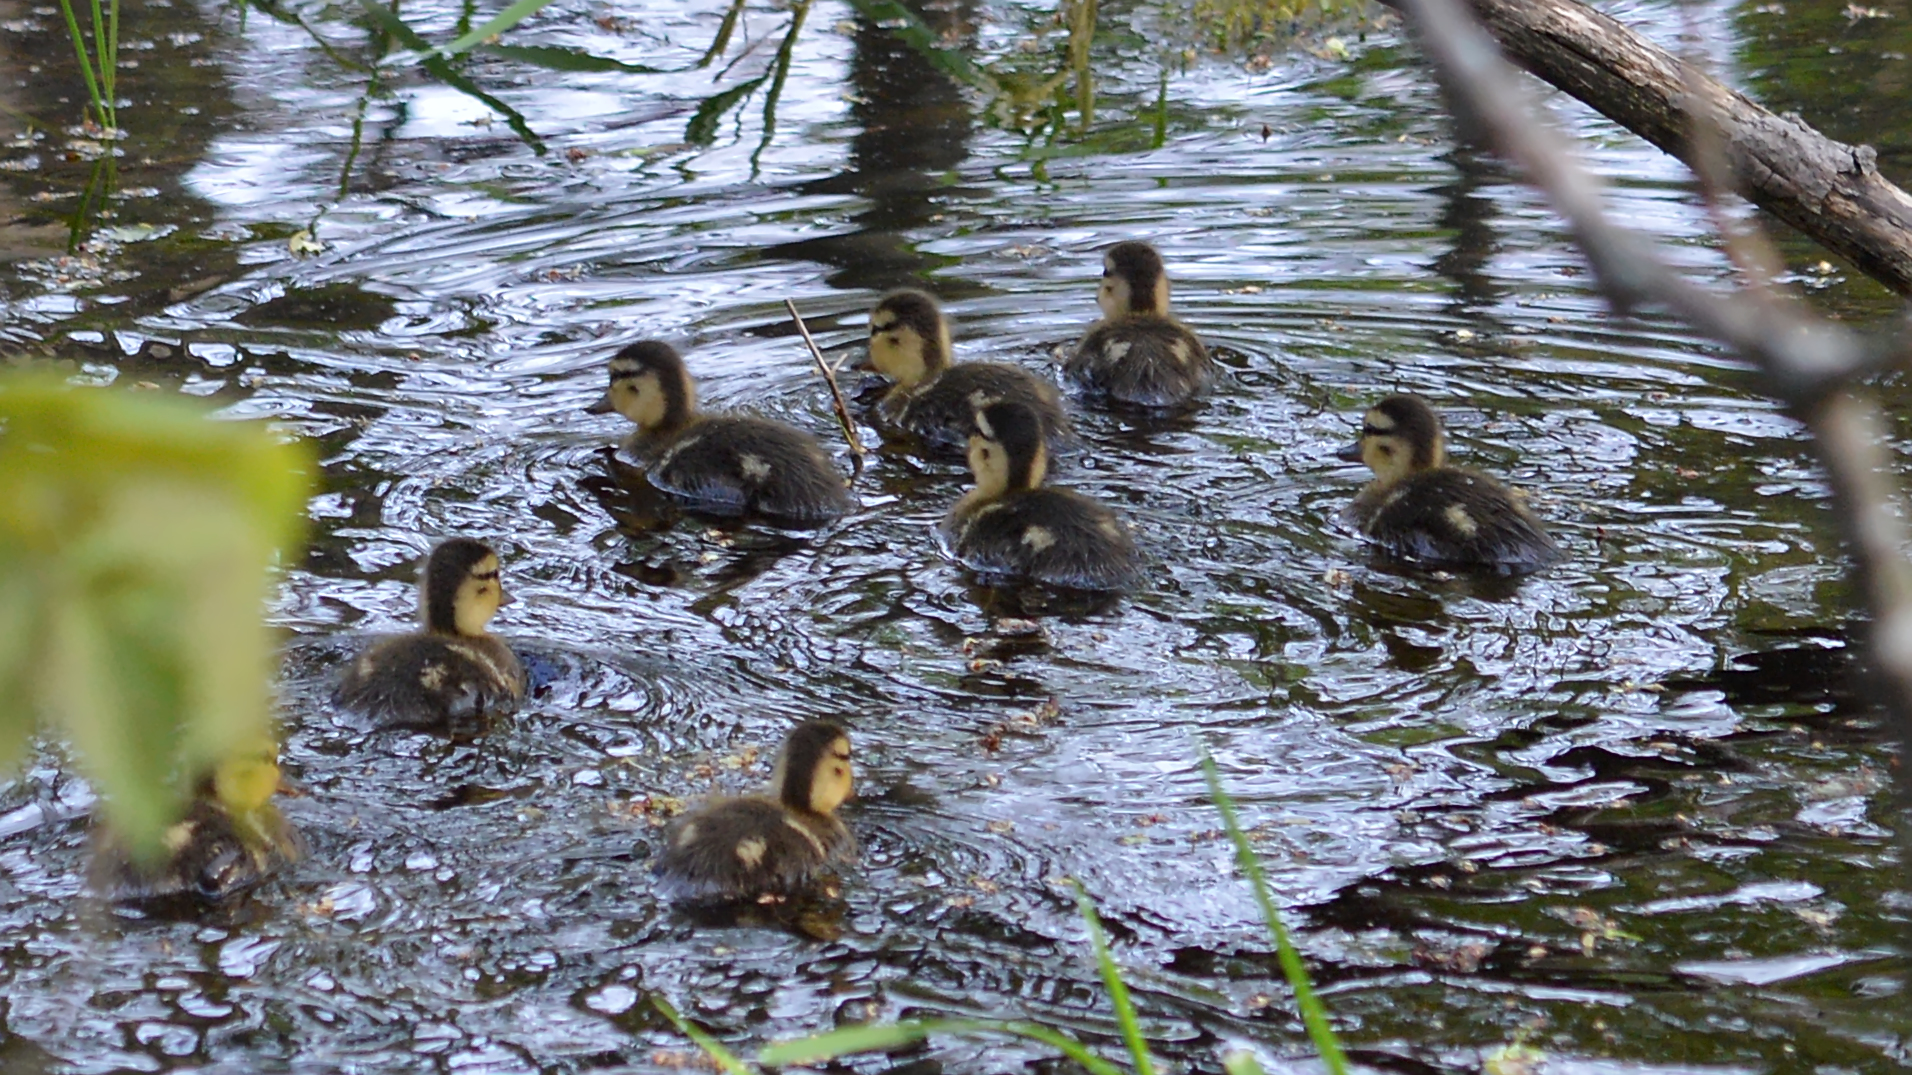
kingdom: Animalia
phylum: Chordata
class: Aves
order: Anseriformes
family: Anatidae
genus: Anas
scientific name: Anas platyrhynchos
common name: Mallard
